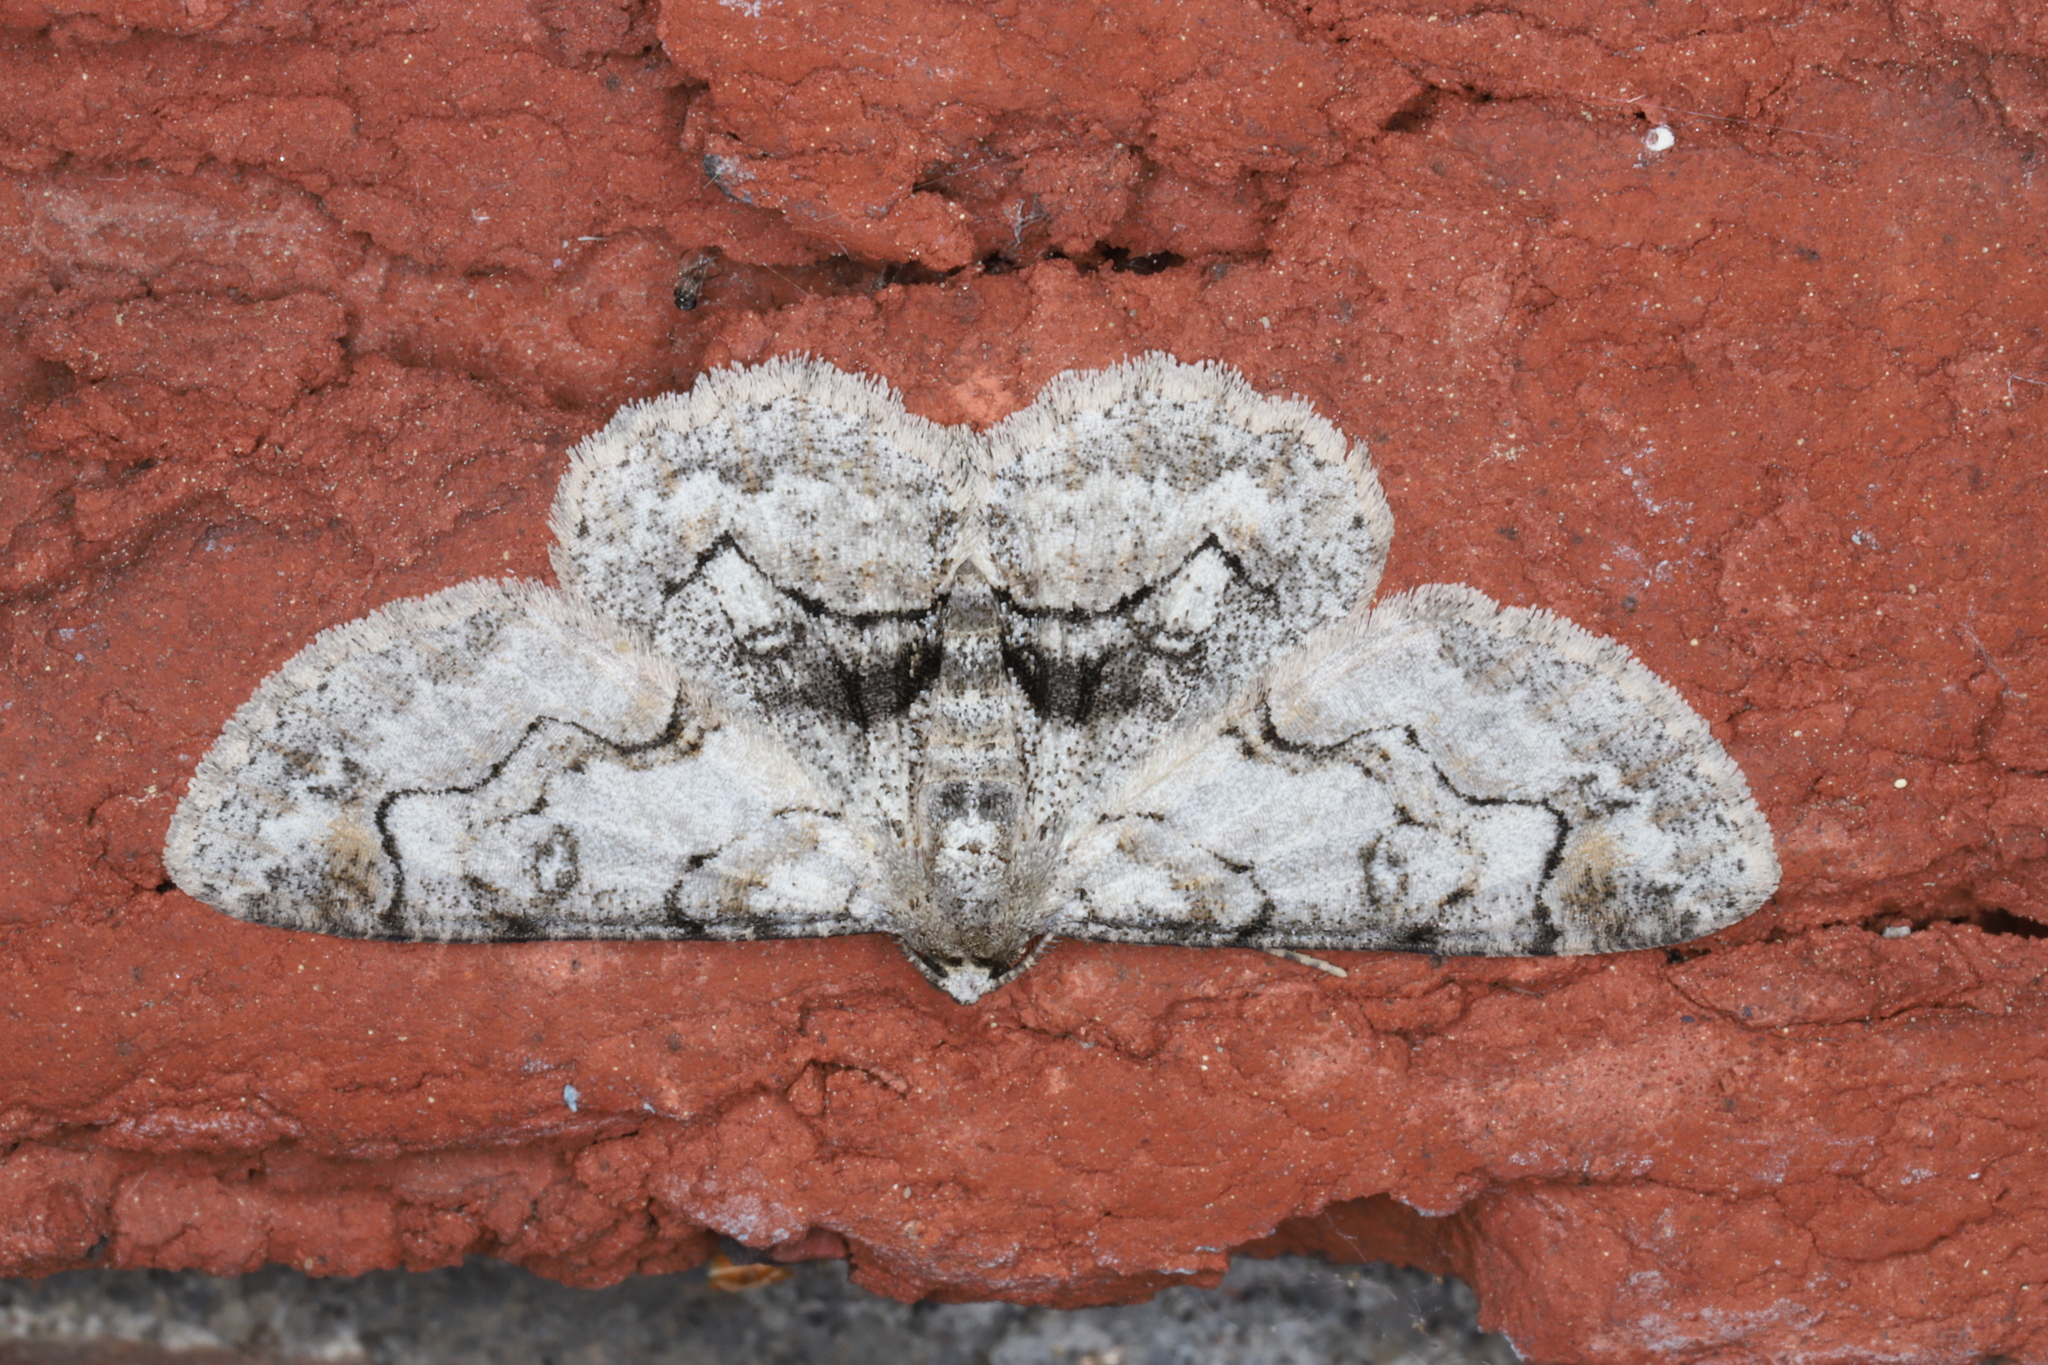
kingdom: Animalia
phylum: Arthropoda
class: Insecta
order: Lepidoptera
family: Geometridae
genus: Iridopsis
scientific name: Iridopsis larvaria
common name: Bent-line gray
